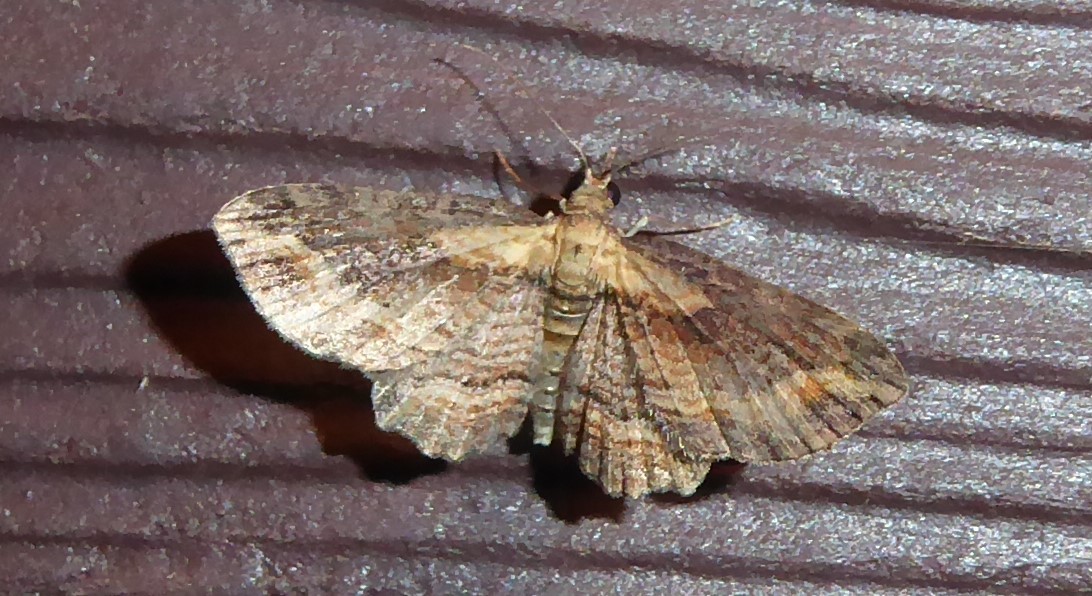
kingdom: Animalia
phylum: Arthropoda
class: Insecta
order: Lepidoptera
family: Geometridae
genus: Chloroclystis
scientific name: Chloroclystis filata
